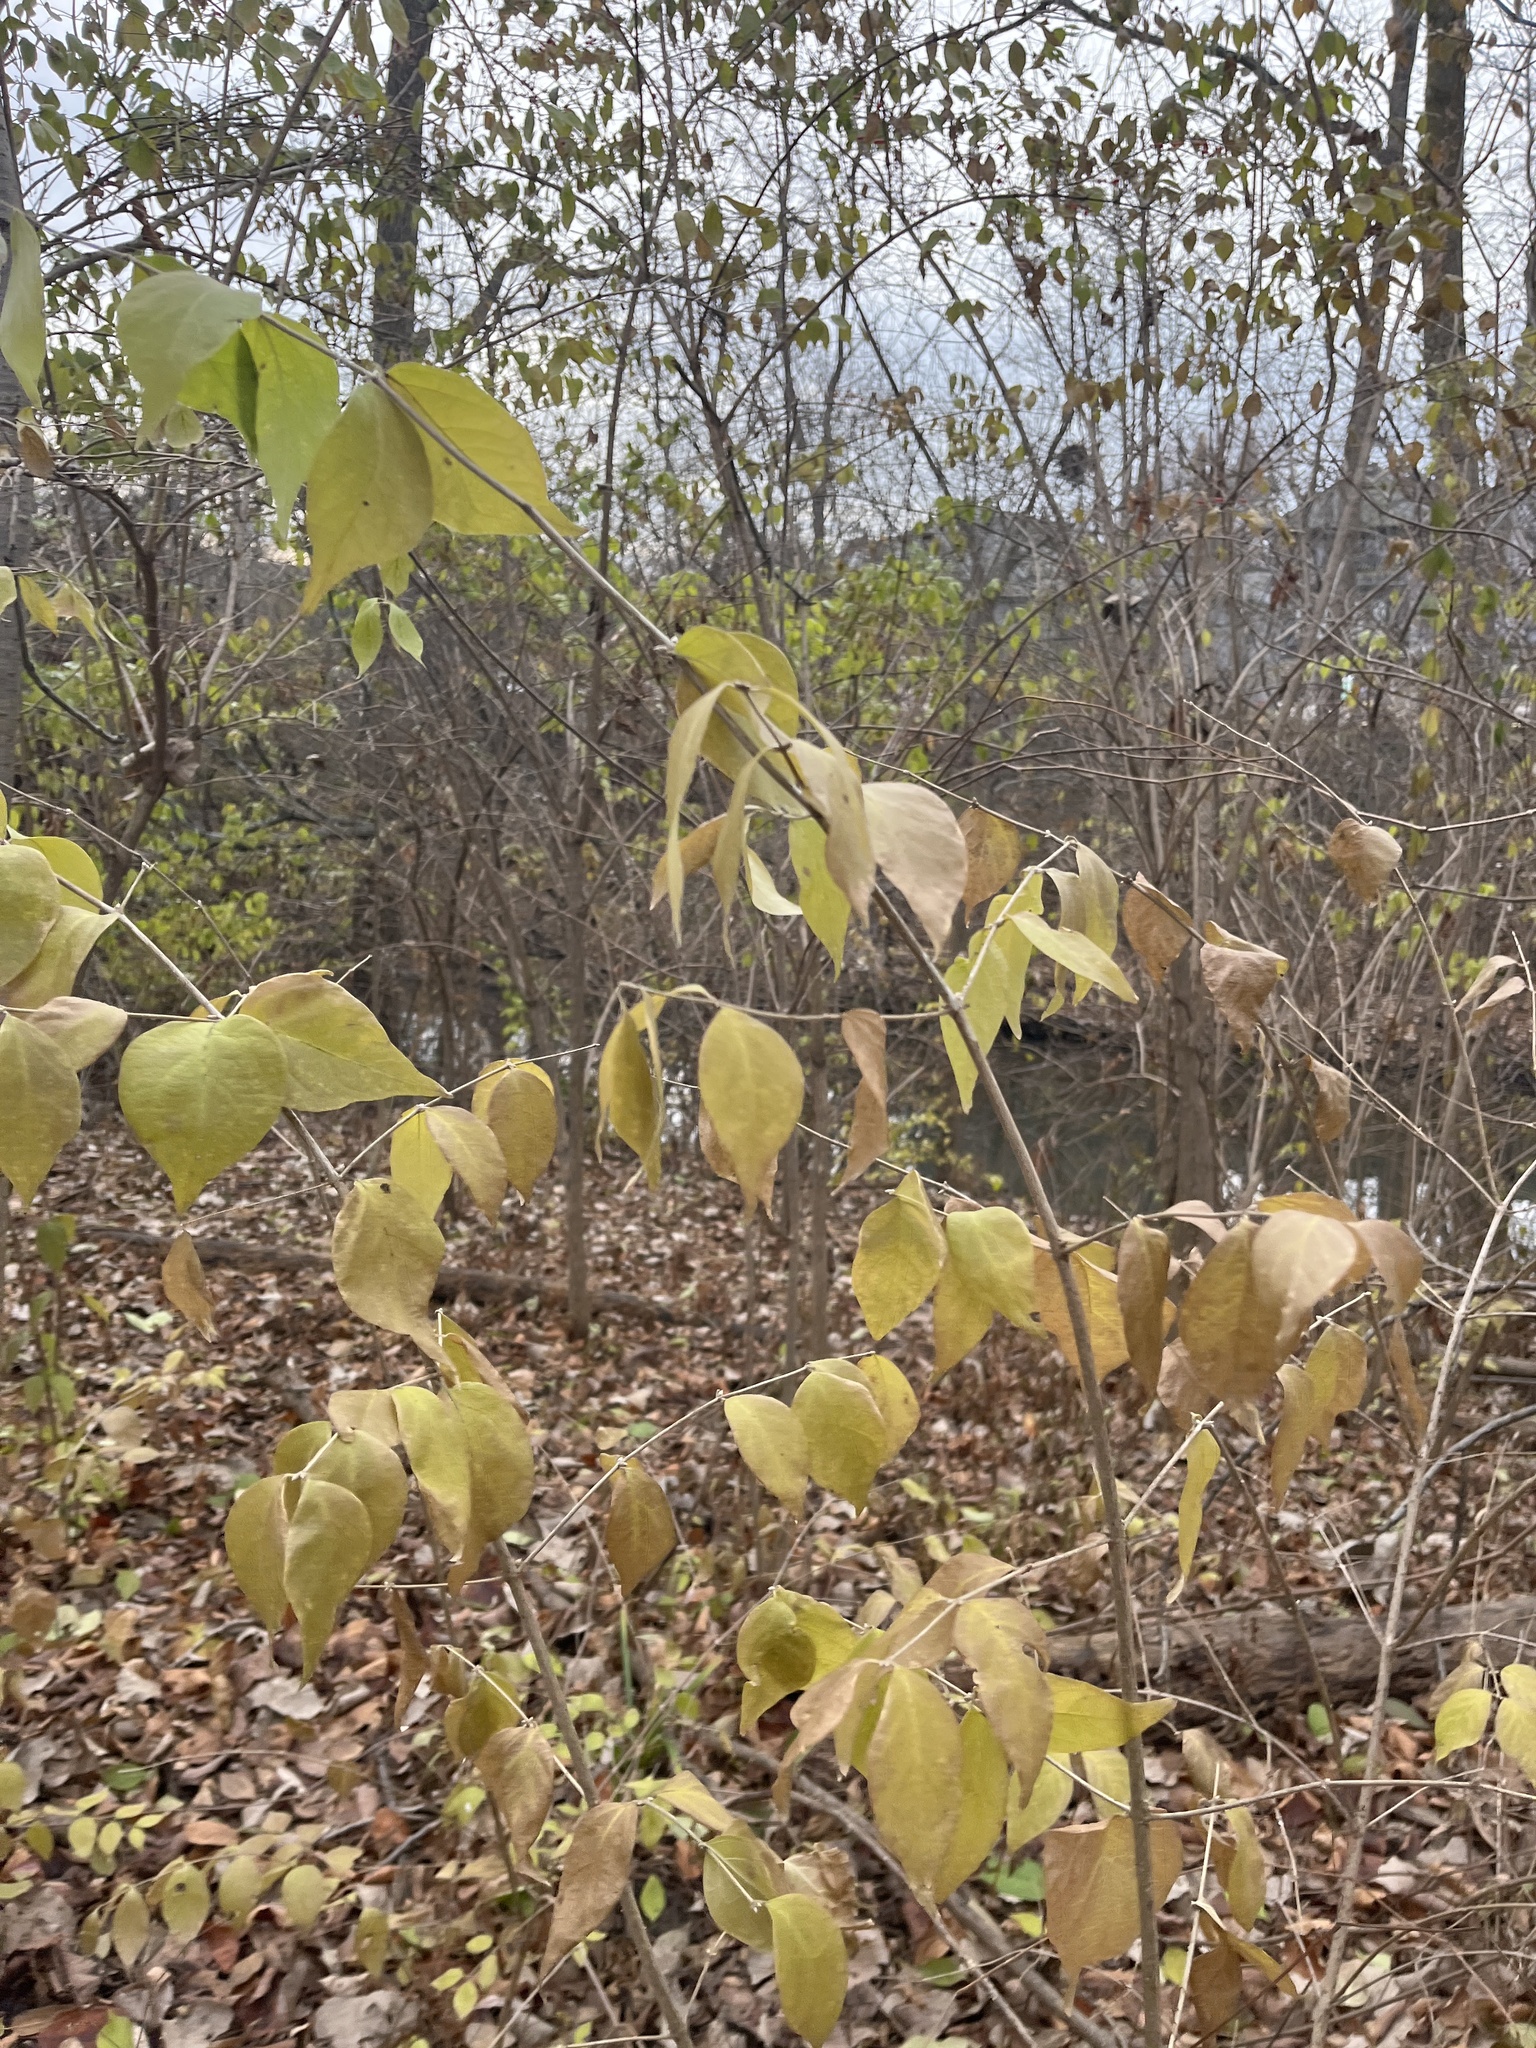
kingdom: Plantae
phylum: Tracheophyta
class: Magnoliopsida
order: Dipsacales
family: Caprifoliaceae
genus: Lonicera
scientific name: Lonicera maackii
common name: Amur honeysuckle
